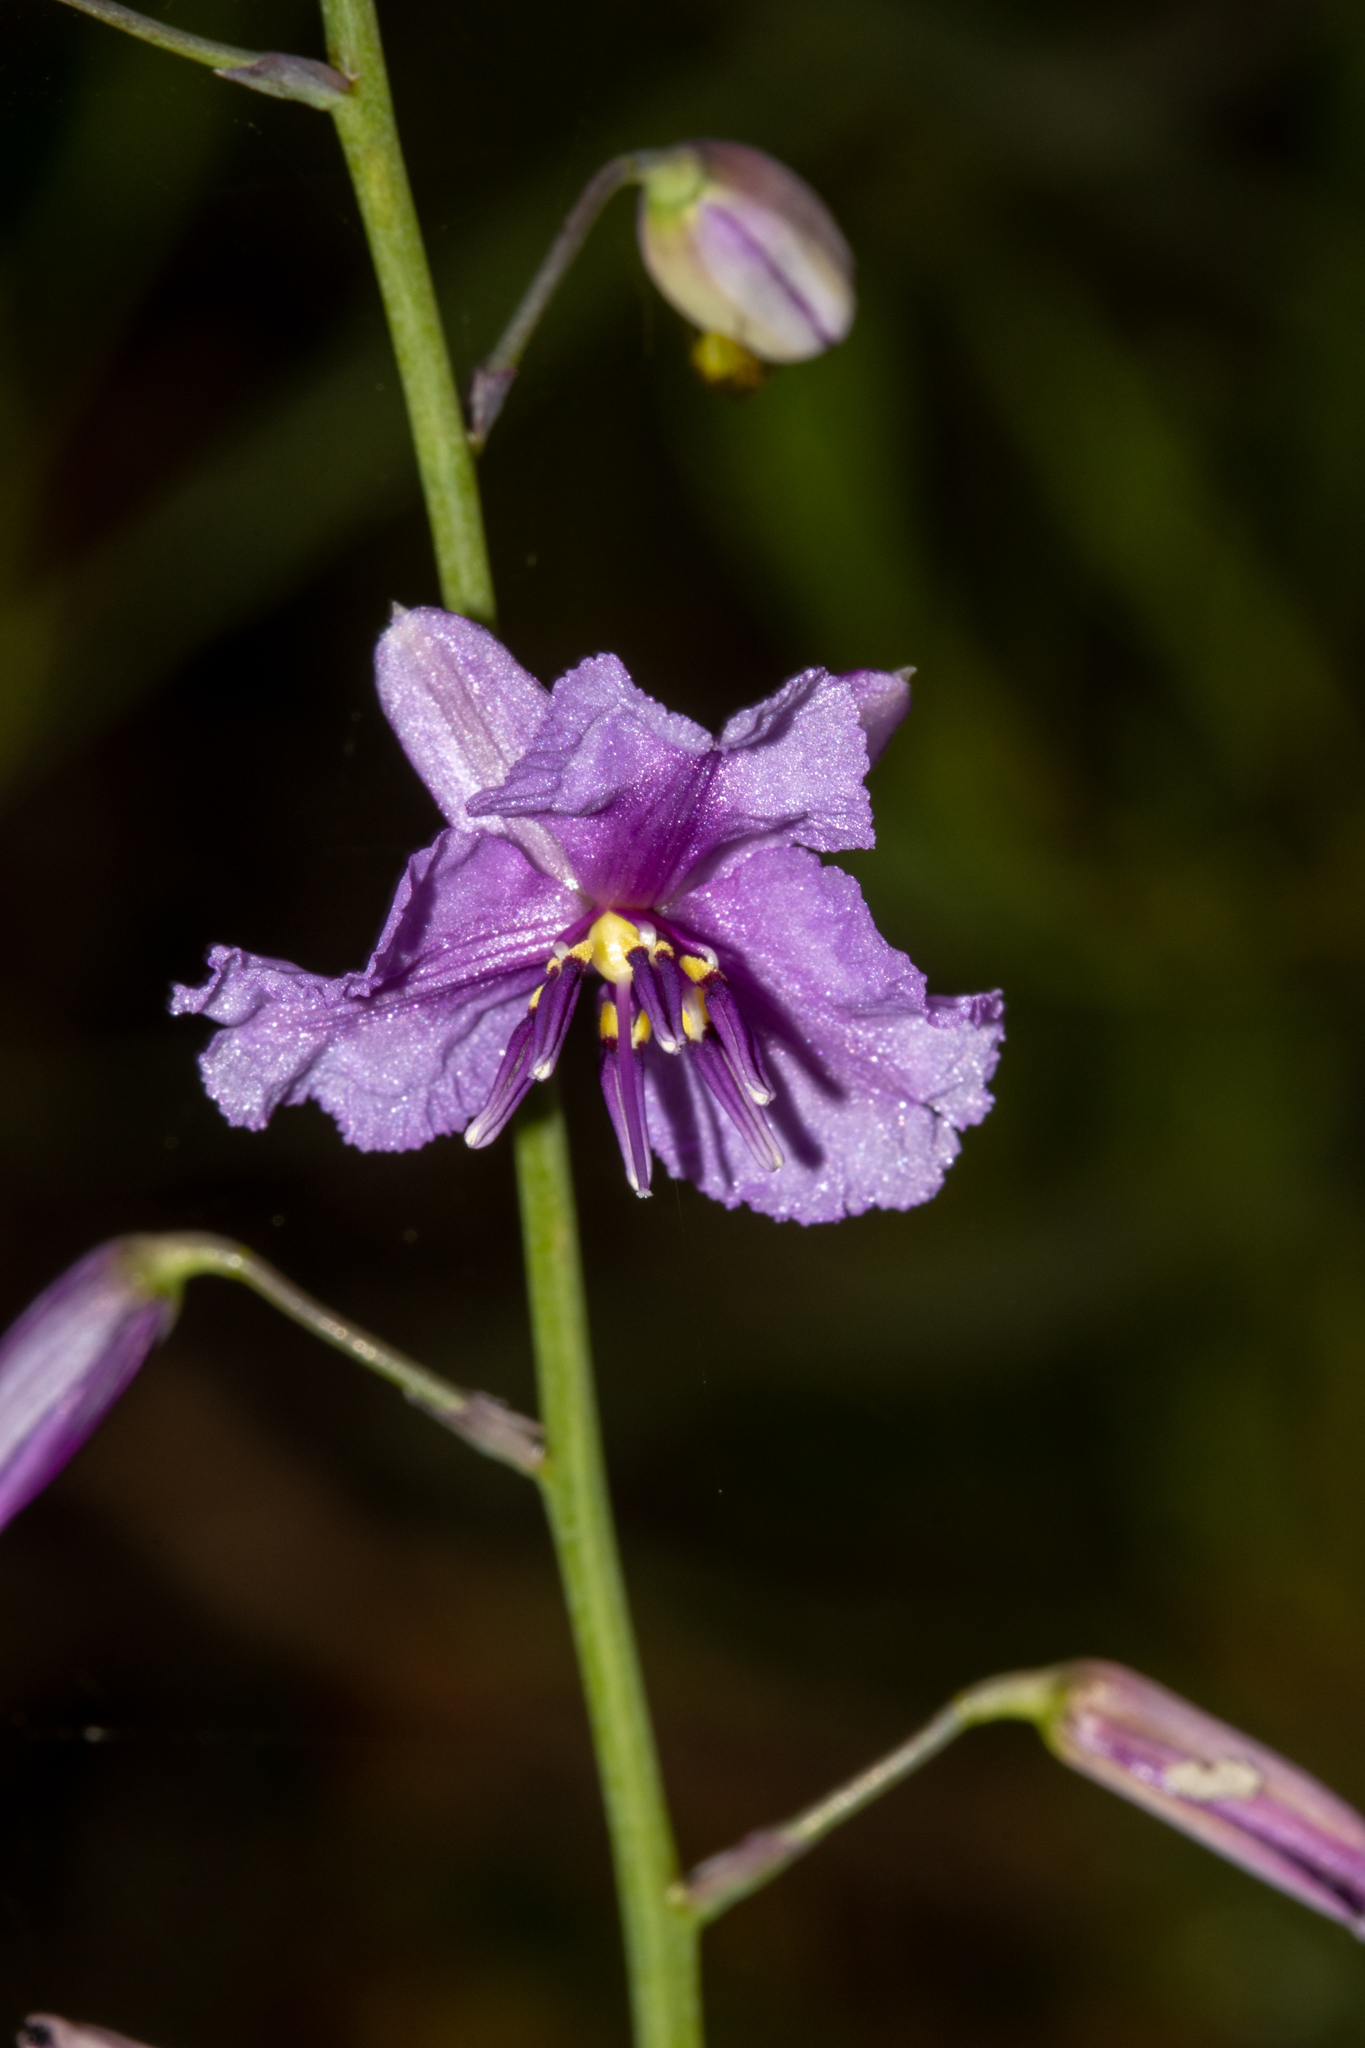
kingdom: Plantae
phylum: Tracheophyta
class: Liliopsida
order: Asparagales
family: Asparagaceae
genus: Arthropodium
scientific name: Arthropodium strictum
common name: Chocolate-lily
